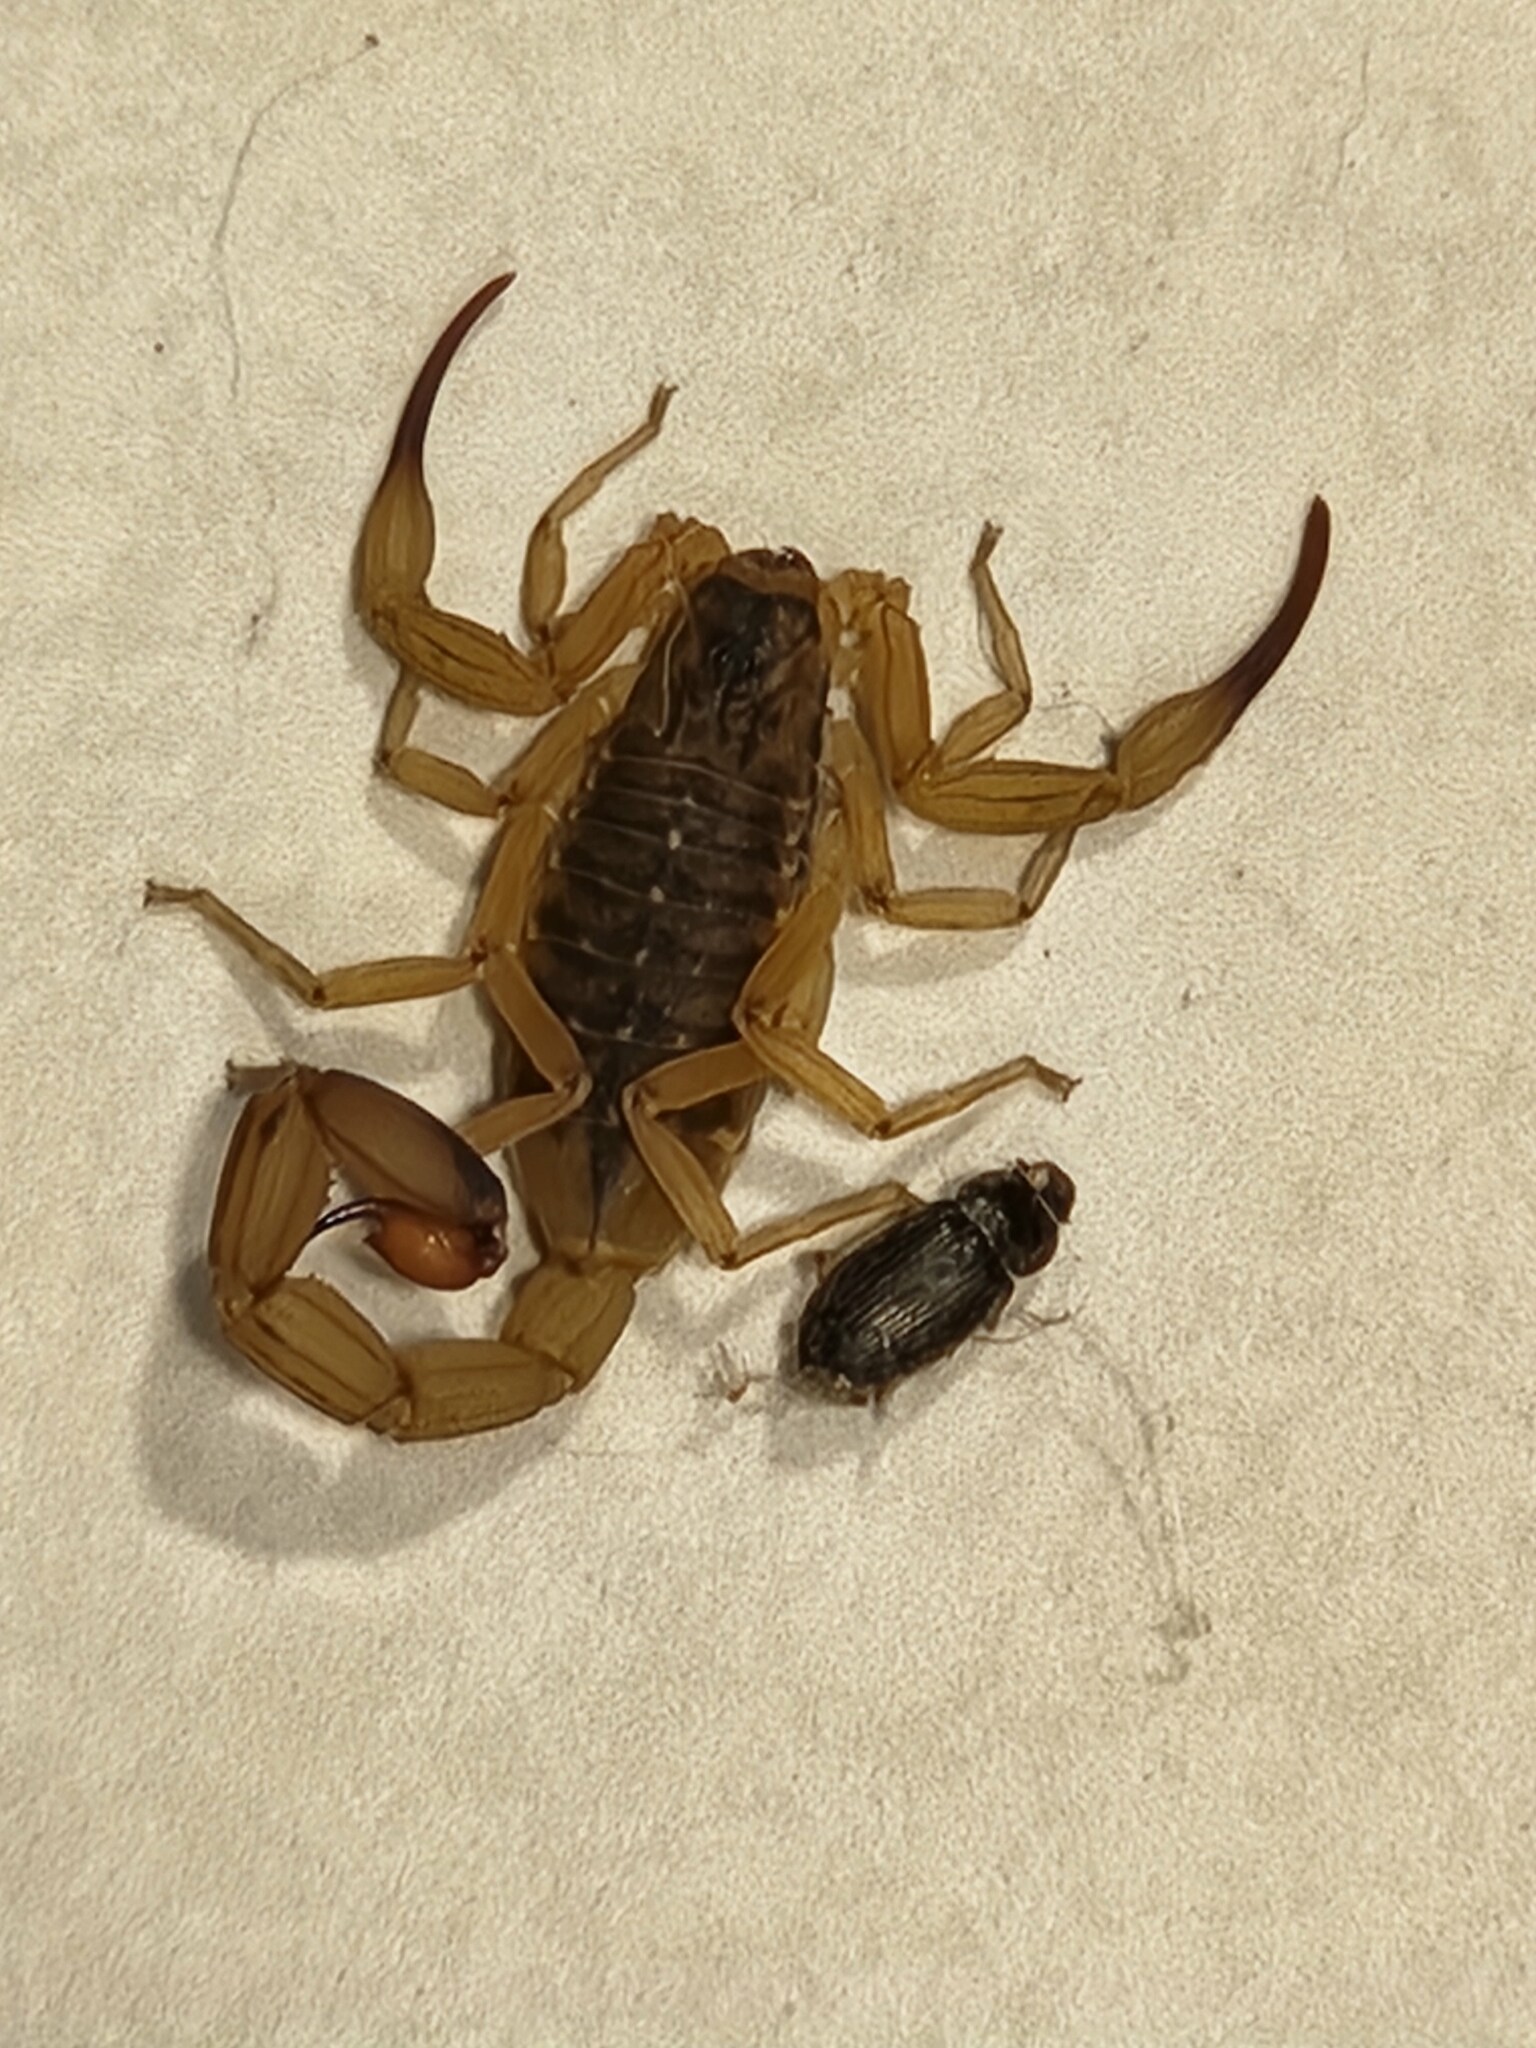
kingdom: Animalia
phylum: Arthropoda
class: Arachnida
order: Scorpiones
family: Buthidae
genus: Tityus
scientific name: Tityus serrulatus
